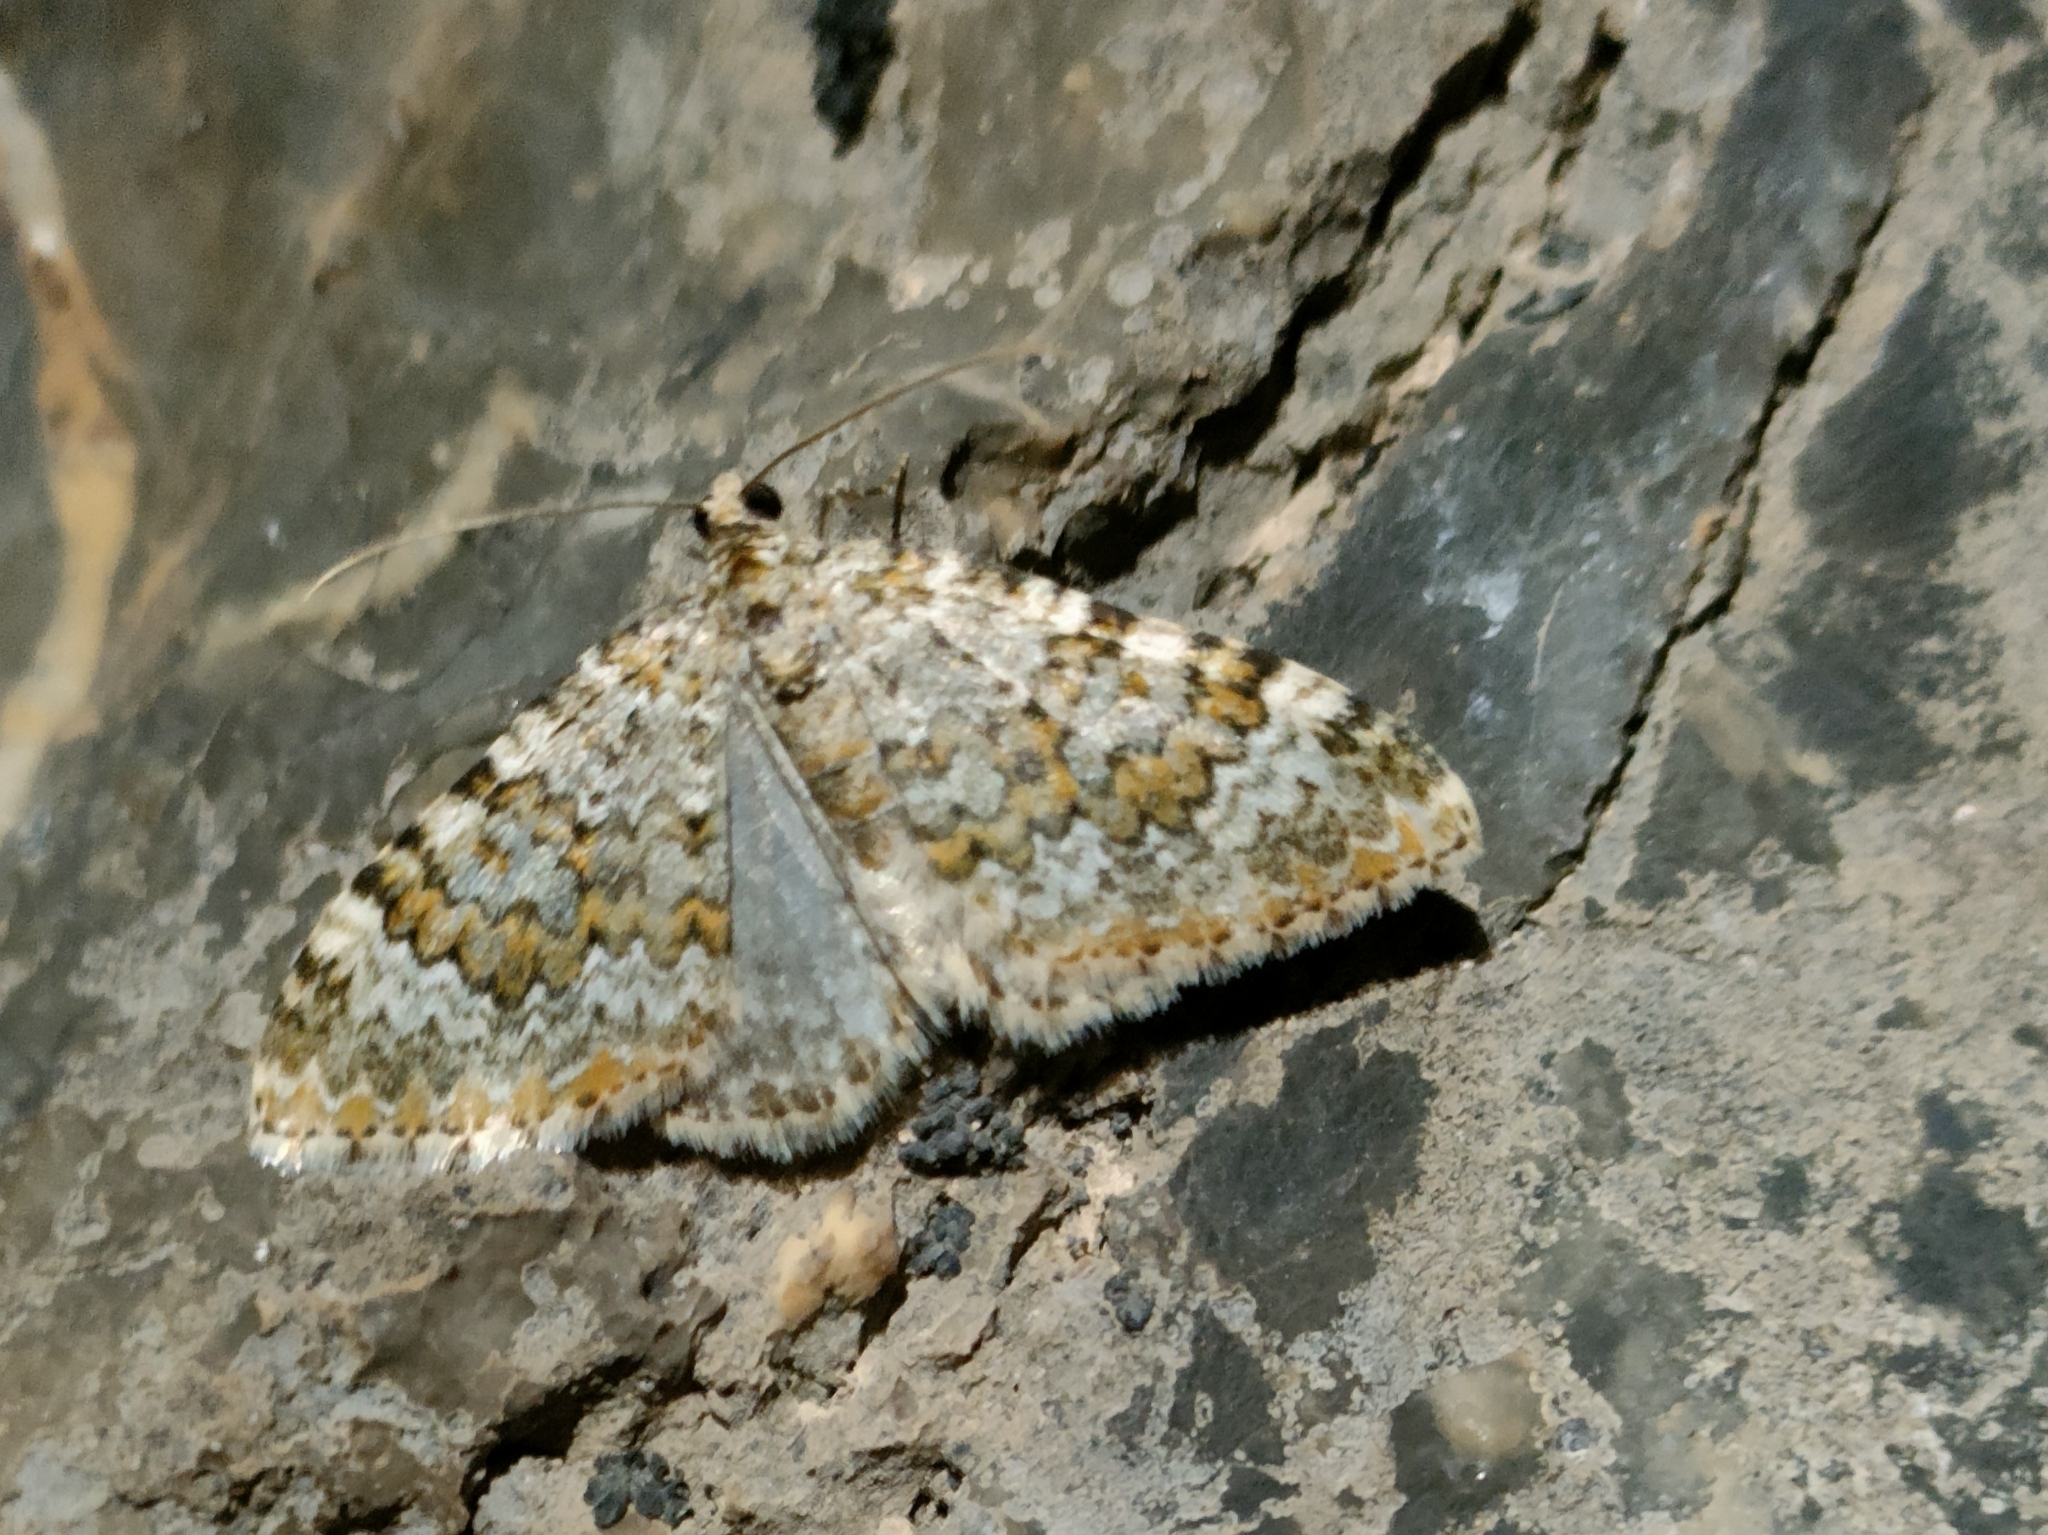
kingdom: Animalia
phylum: Arthropoda
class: Insecta
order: Lepidoptera
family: Geometridae
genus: Euphyia
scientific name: Euphyia frustata
